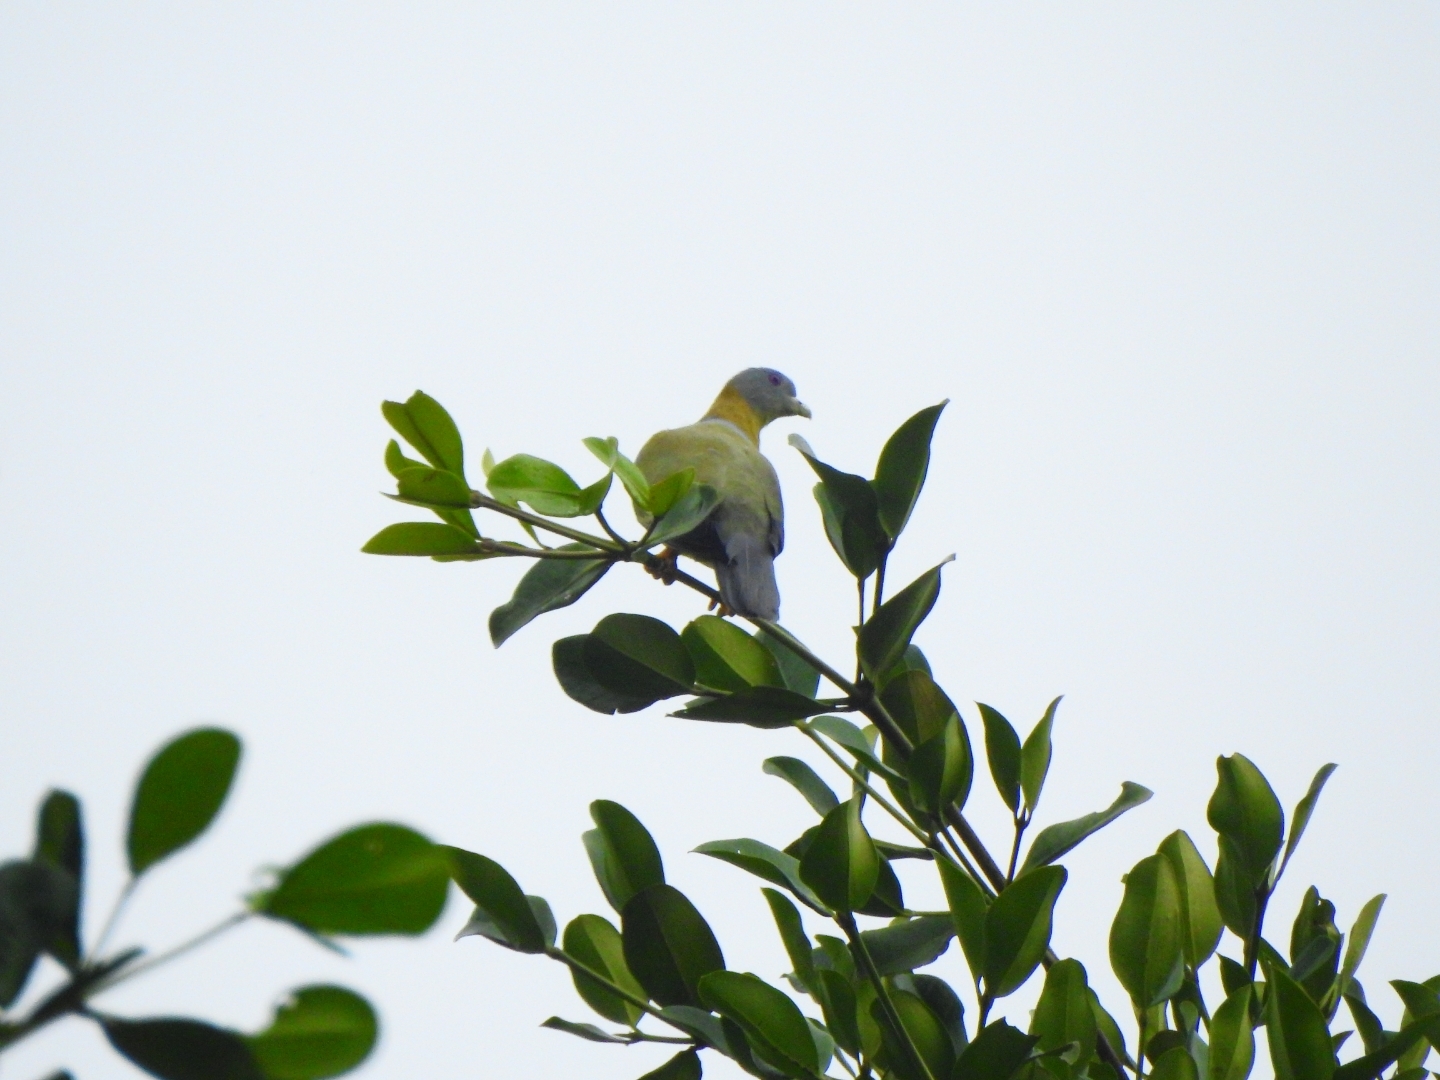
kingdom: Animalia
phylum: Chordata
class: Aves
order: Columbiformes
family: Columbidae
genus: Treron
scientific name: Treron phoenicopterus
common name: Yellow-footed green pigeon
